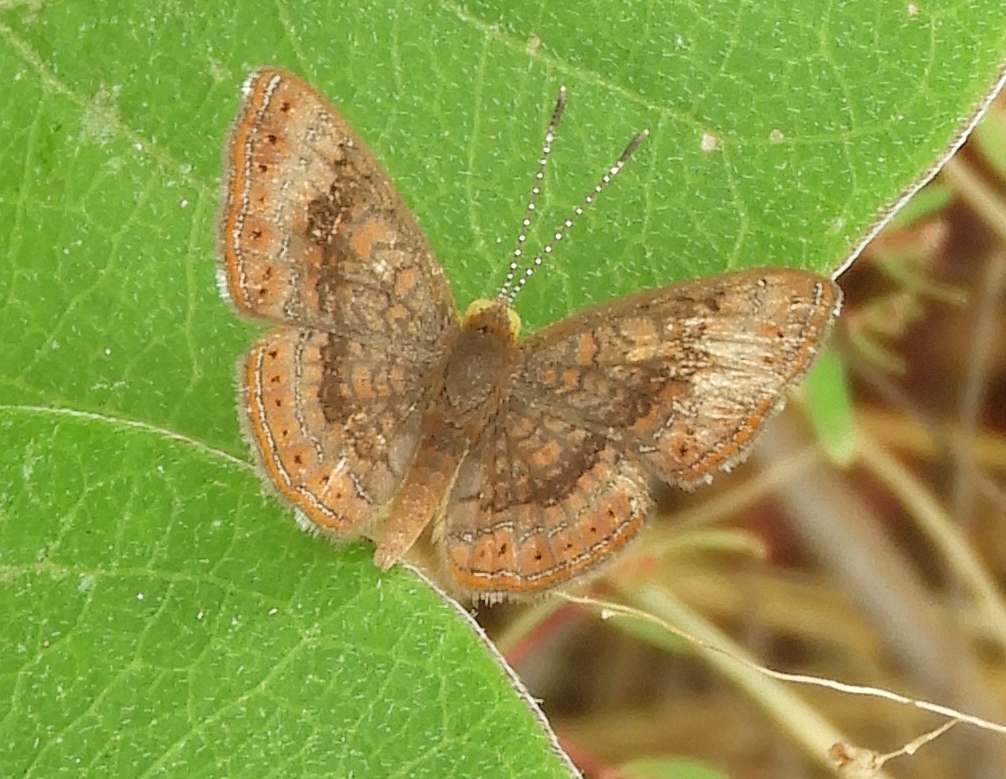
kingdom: Animalia
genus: Calephelis
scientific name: Calephelis
